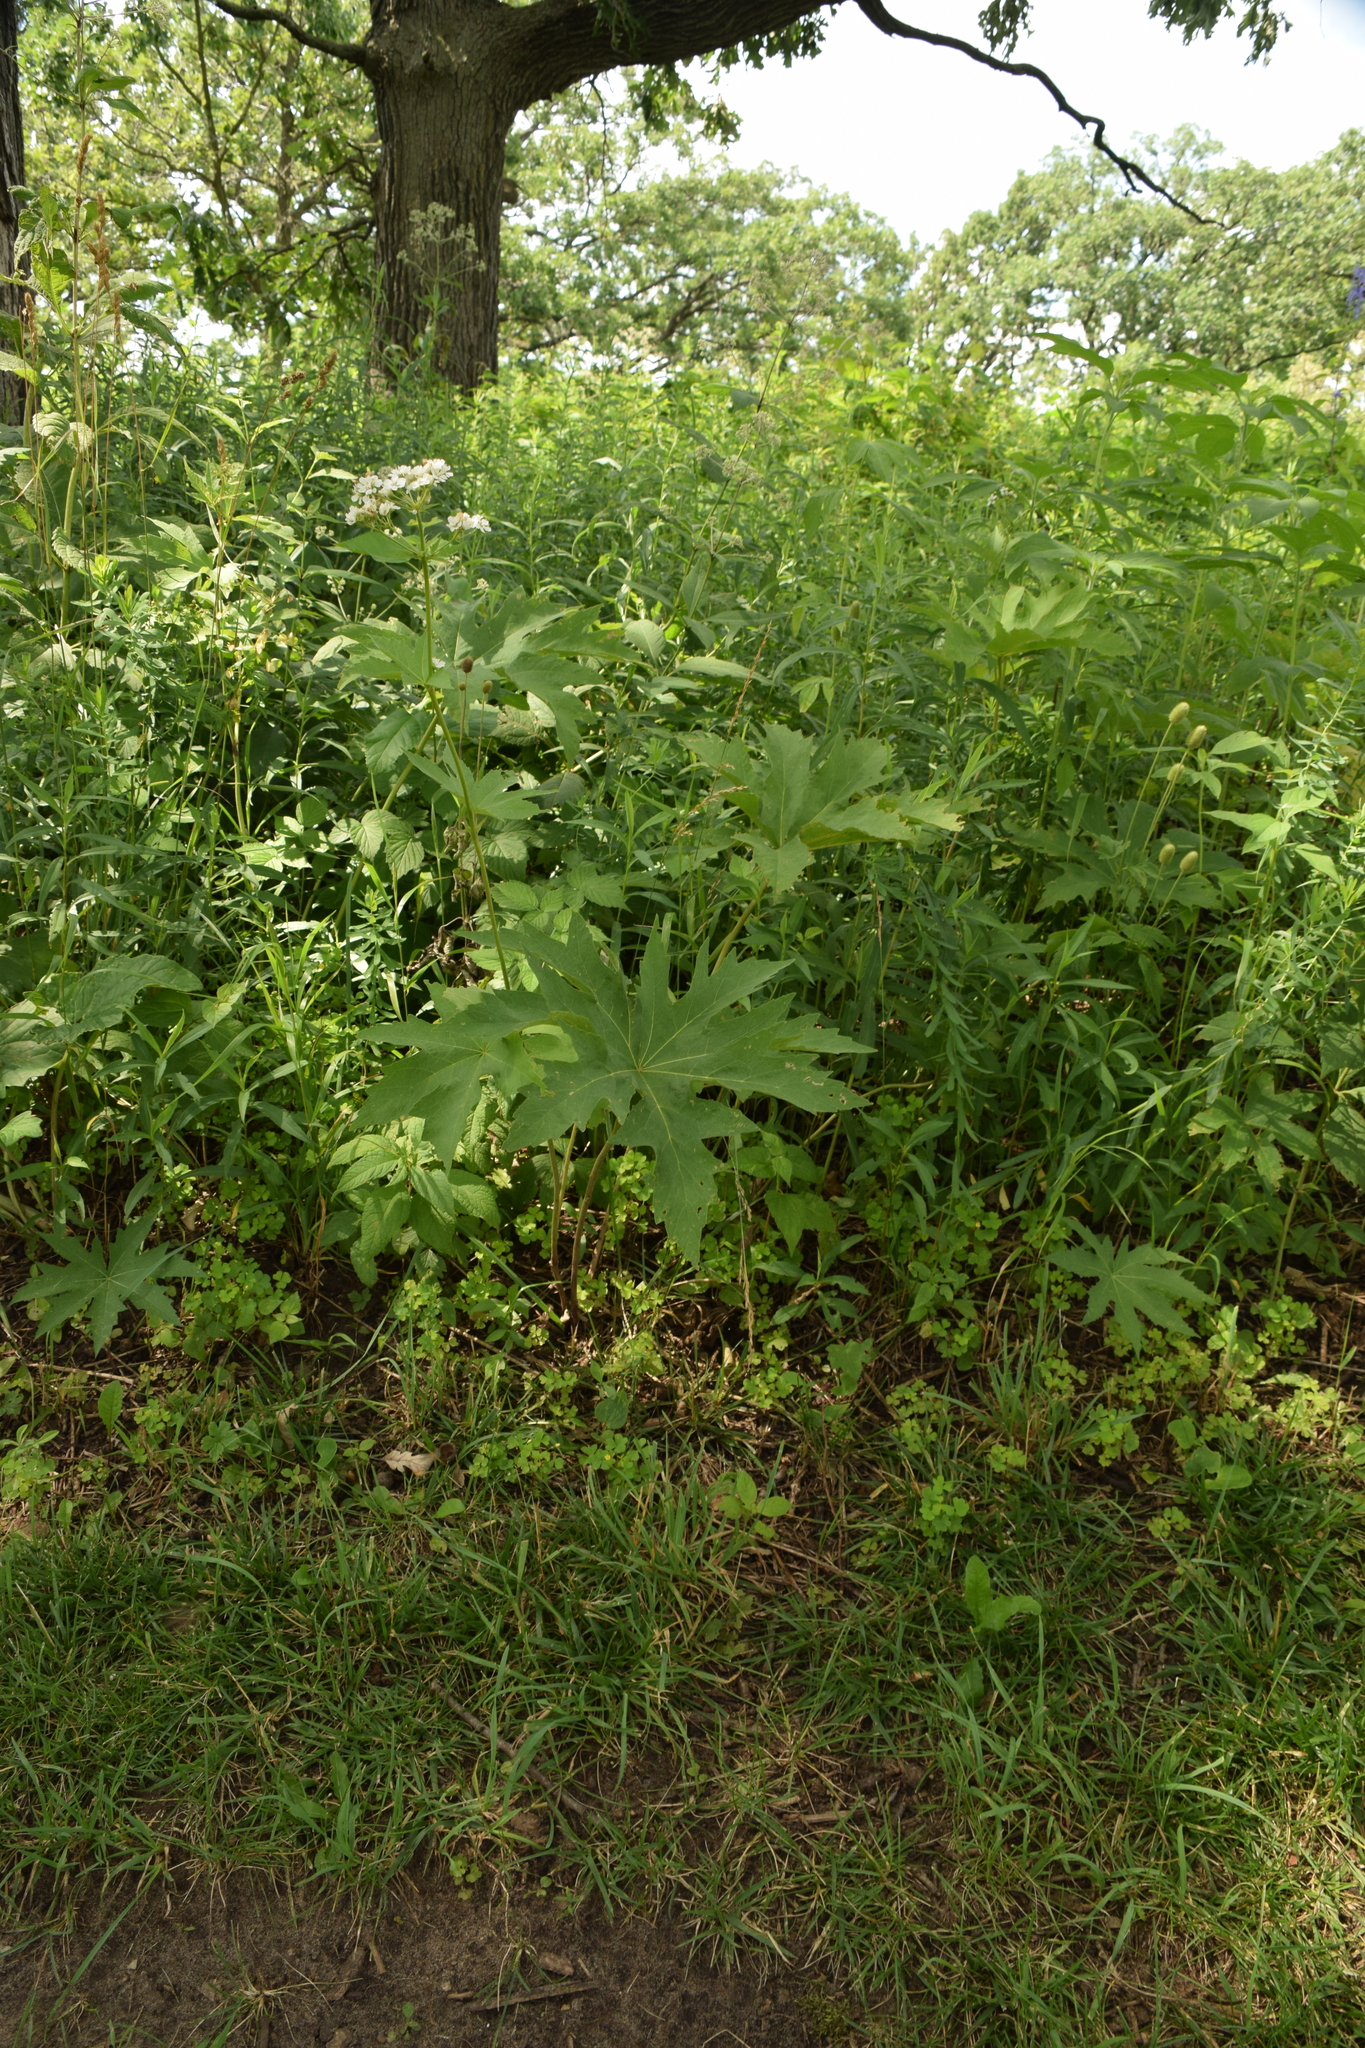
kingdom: Plantae
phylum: Tracheophyta
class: Magnoliopsida
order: Malvales
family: Malvaceae
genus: Napaea
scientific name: Napaea dioica
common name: Glade-mallow
